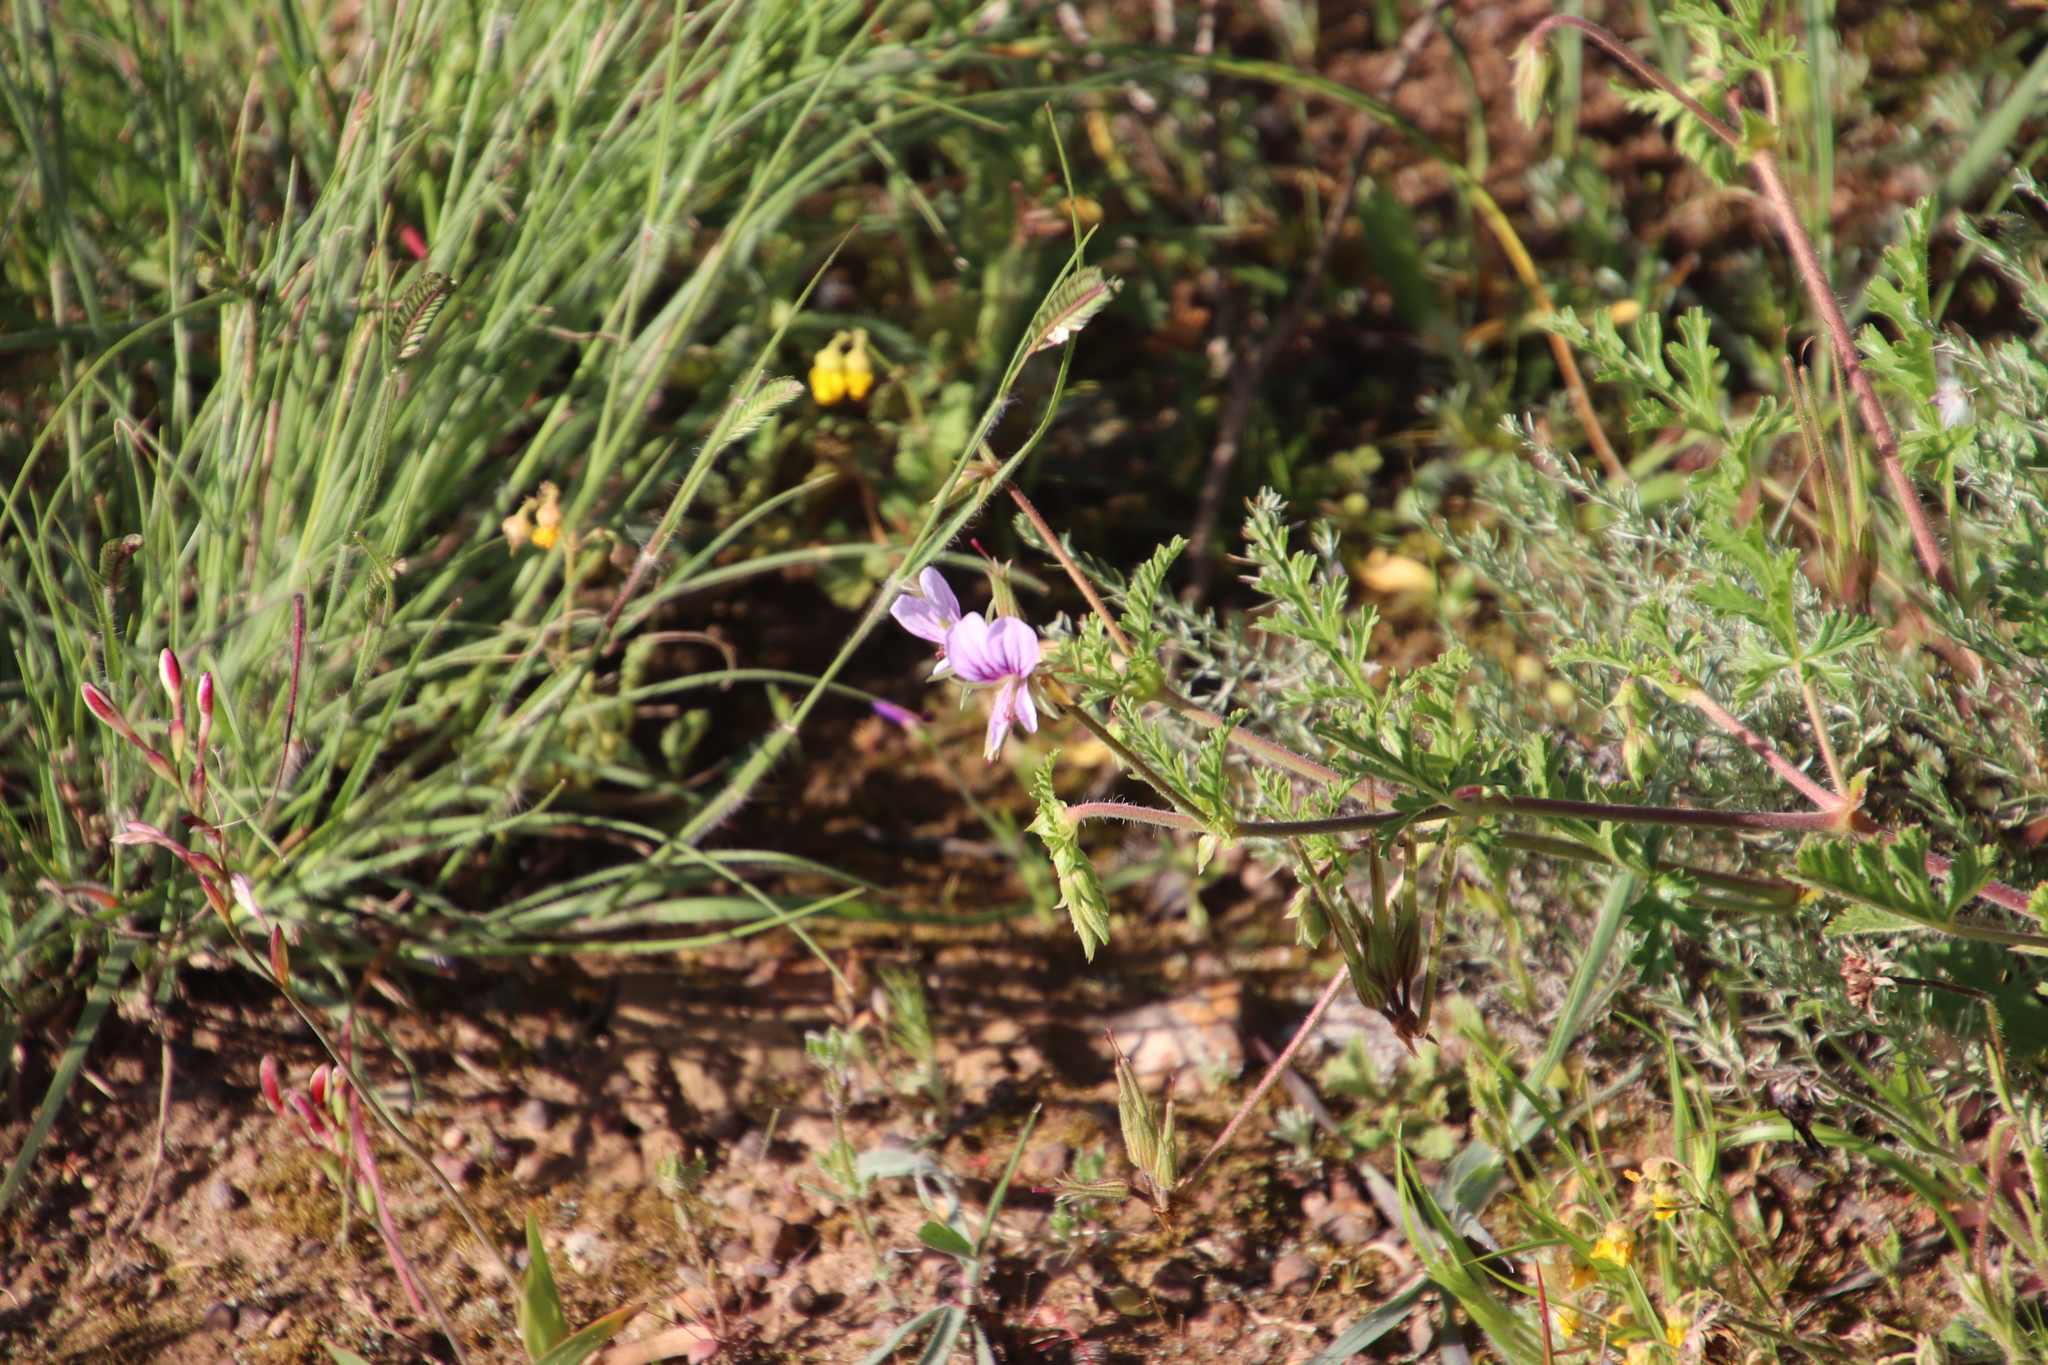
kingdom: Plantae
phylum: Tracheophyta
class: Magnoliopsida
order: Geraniales
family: Geraniaceae
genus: Pelargonium
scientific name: Pelargonium myrrhifolium
